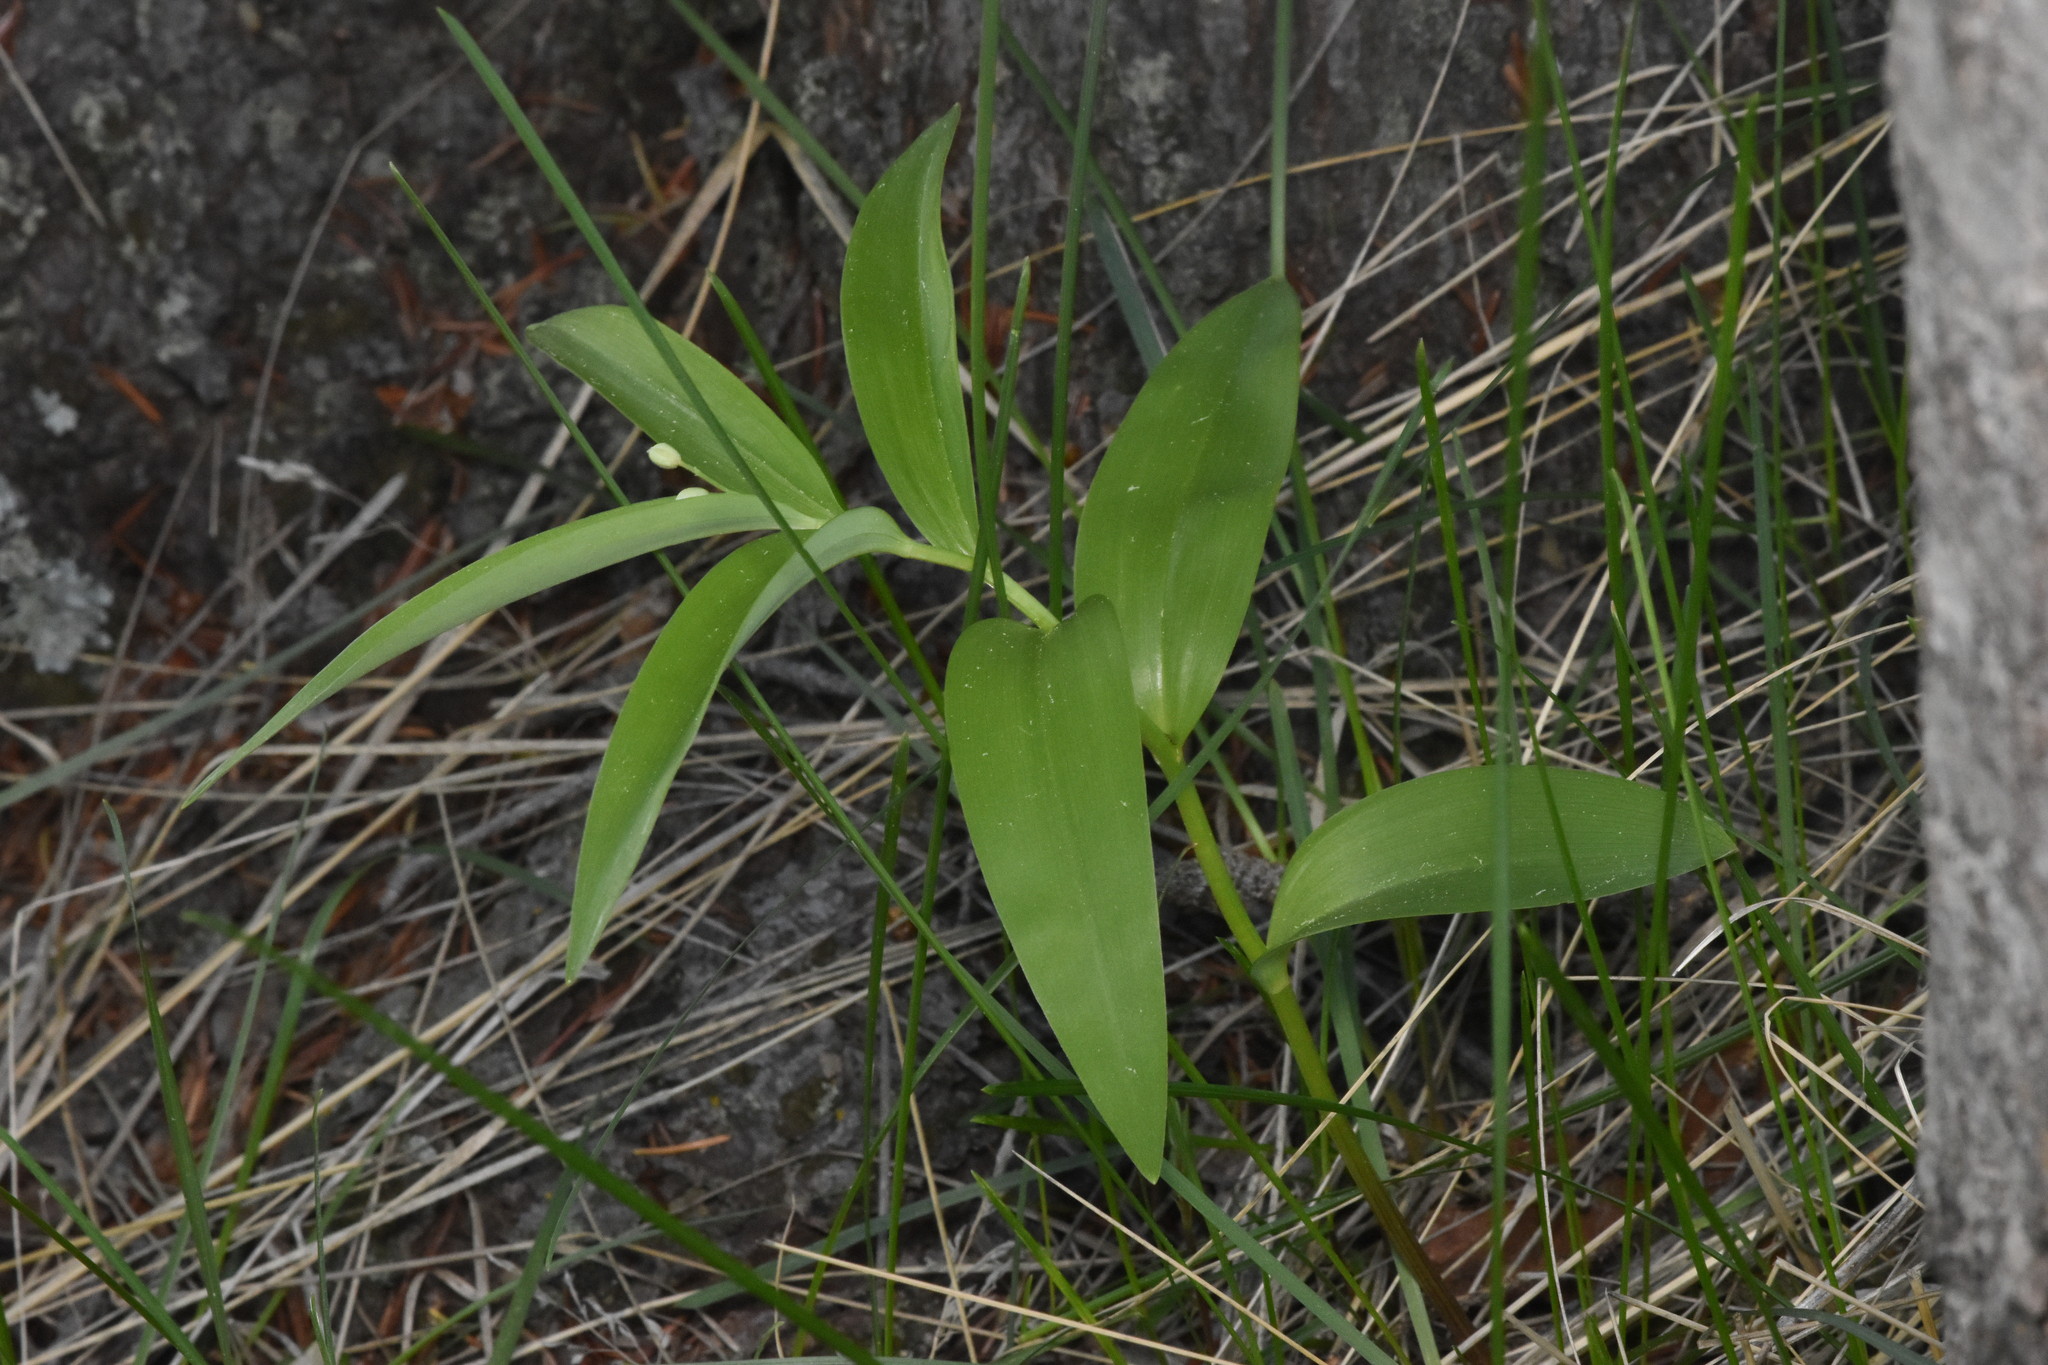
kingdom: Plantae
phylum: Tracheophyta
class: Liliopsida
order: Asparagales
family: Asparagaceae
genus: Maianthemum
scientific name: Maianthemum stellatum
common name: Little false solomon's seal
